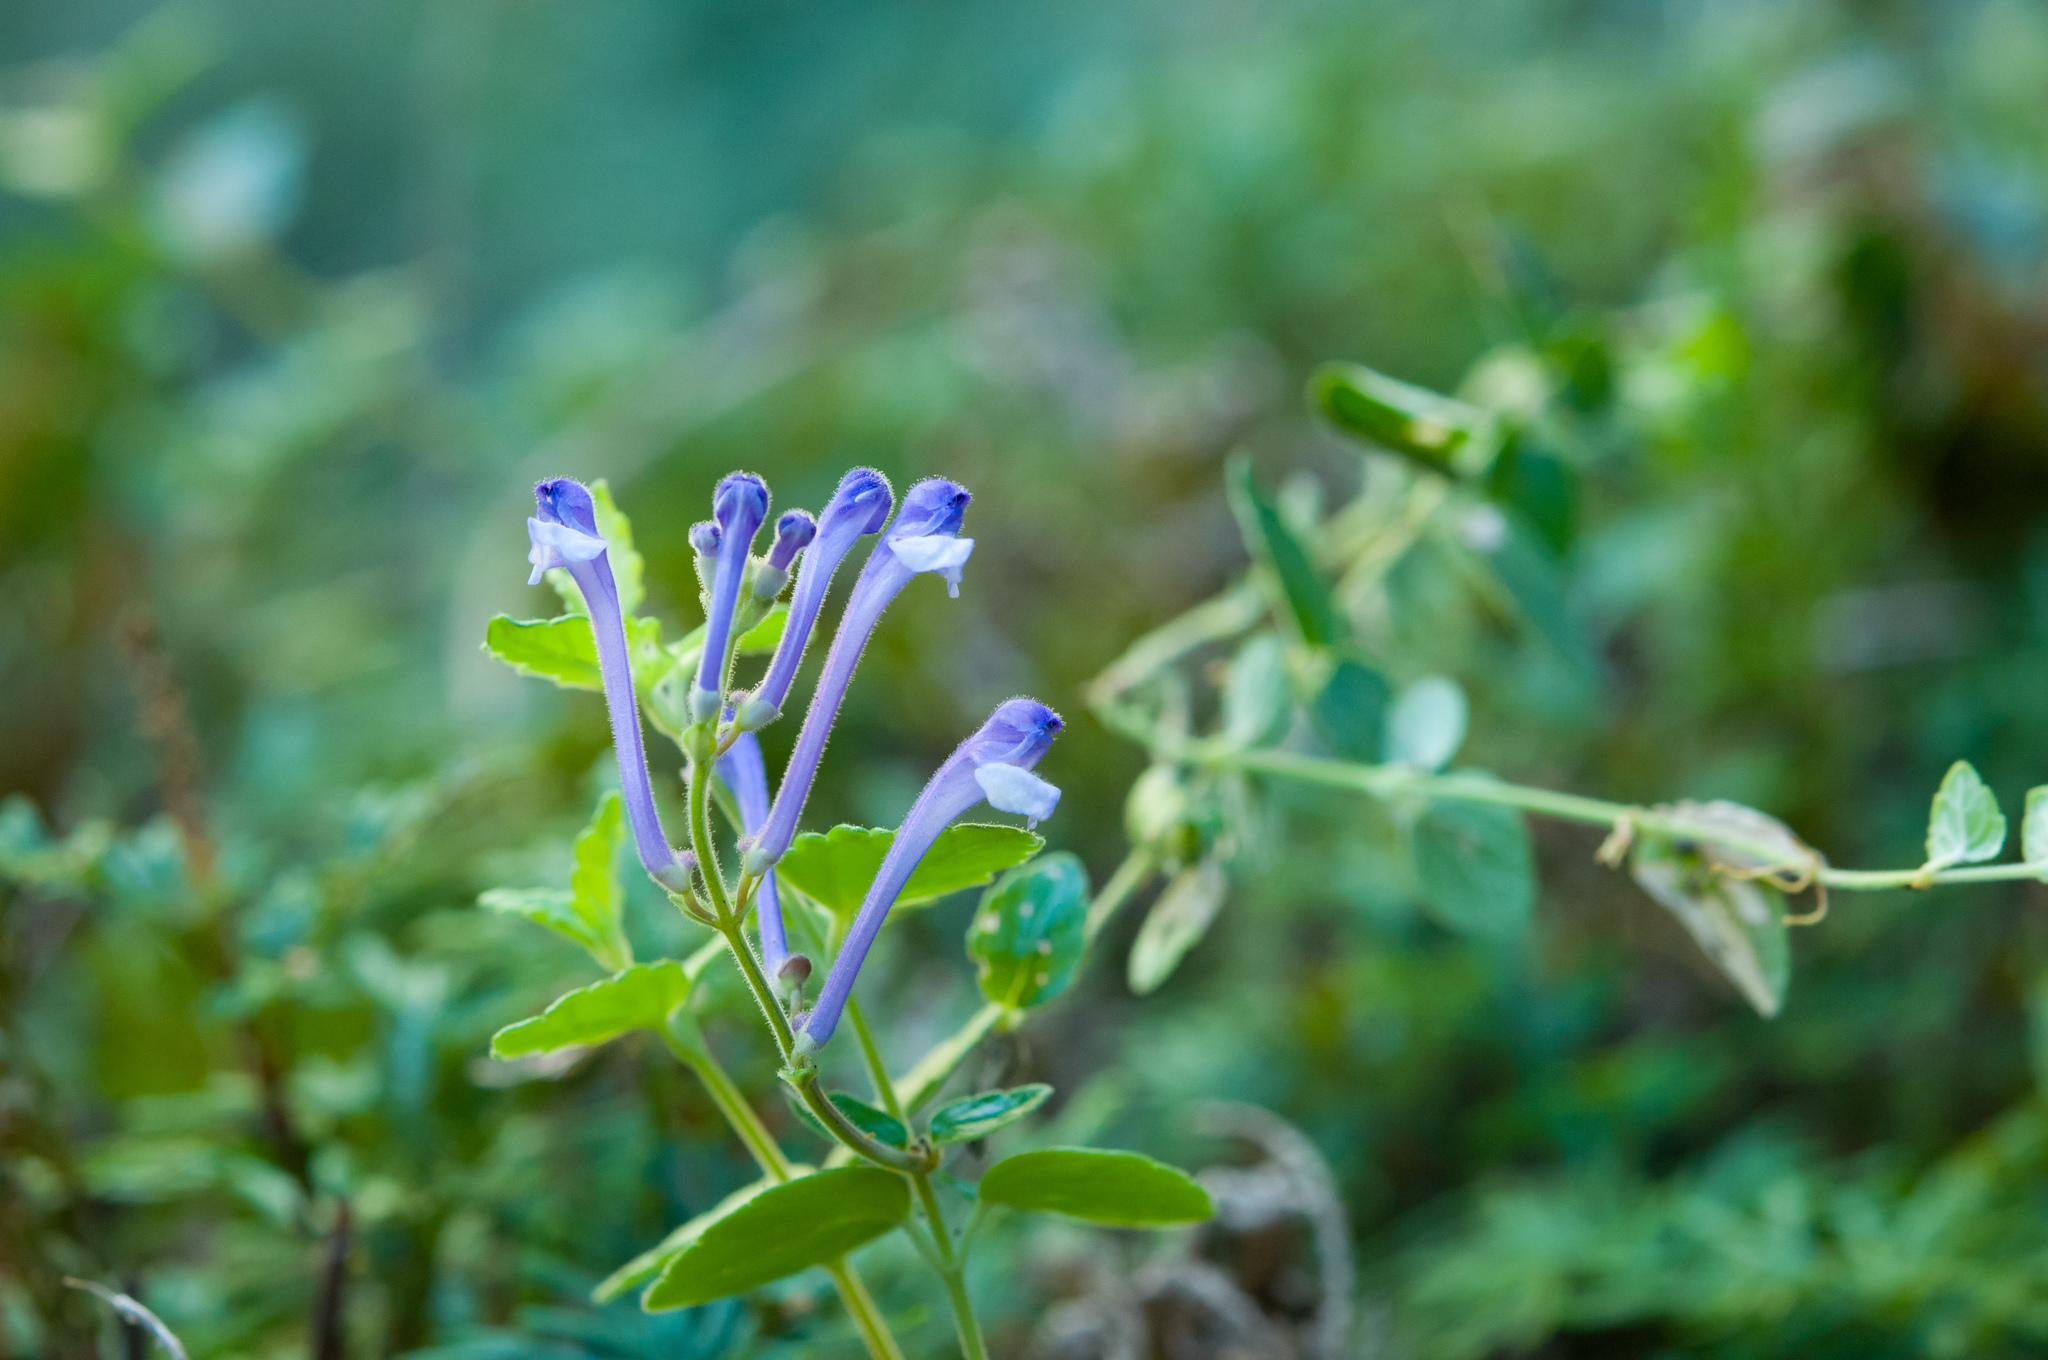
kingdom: Plantae
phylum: Tracheophyta
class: Magnoliopsida
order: Lamiales
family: Lamiaceae
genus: Scutellaria
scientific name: Scutellaria indica
